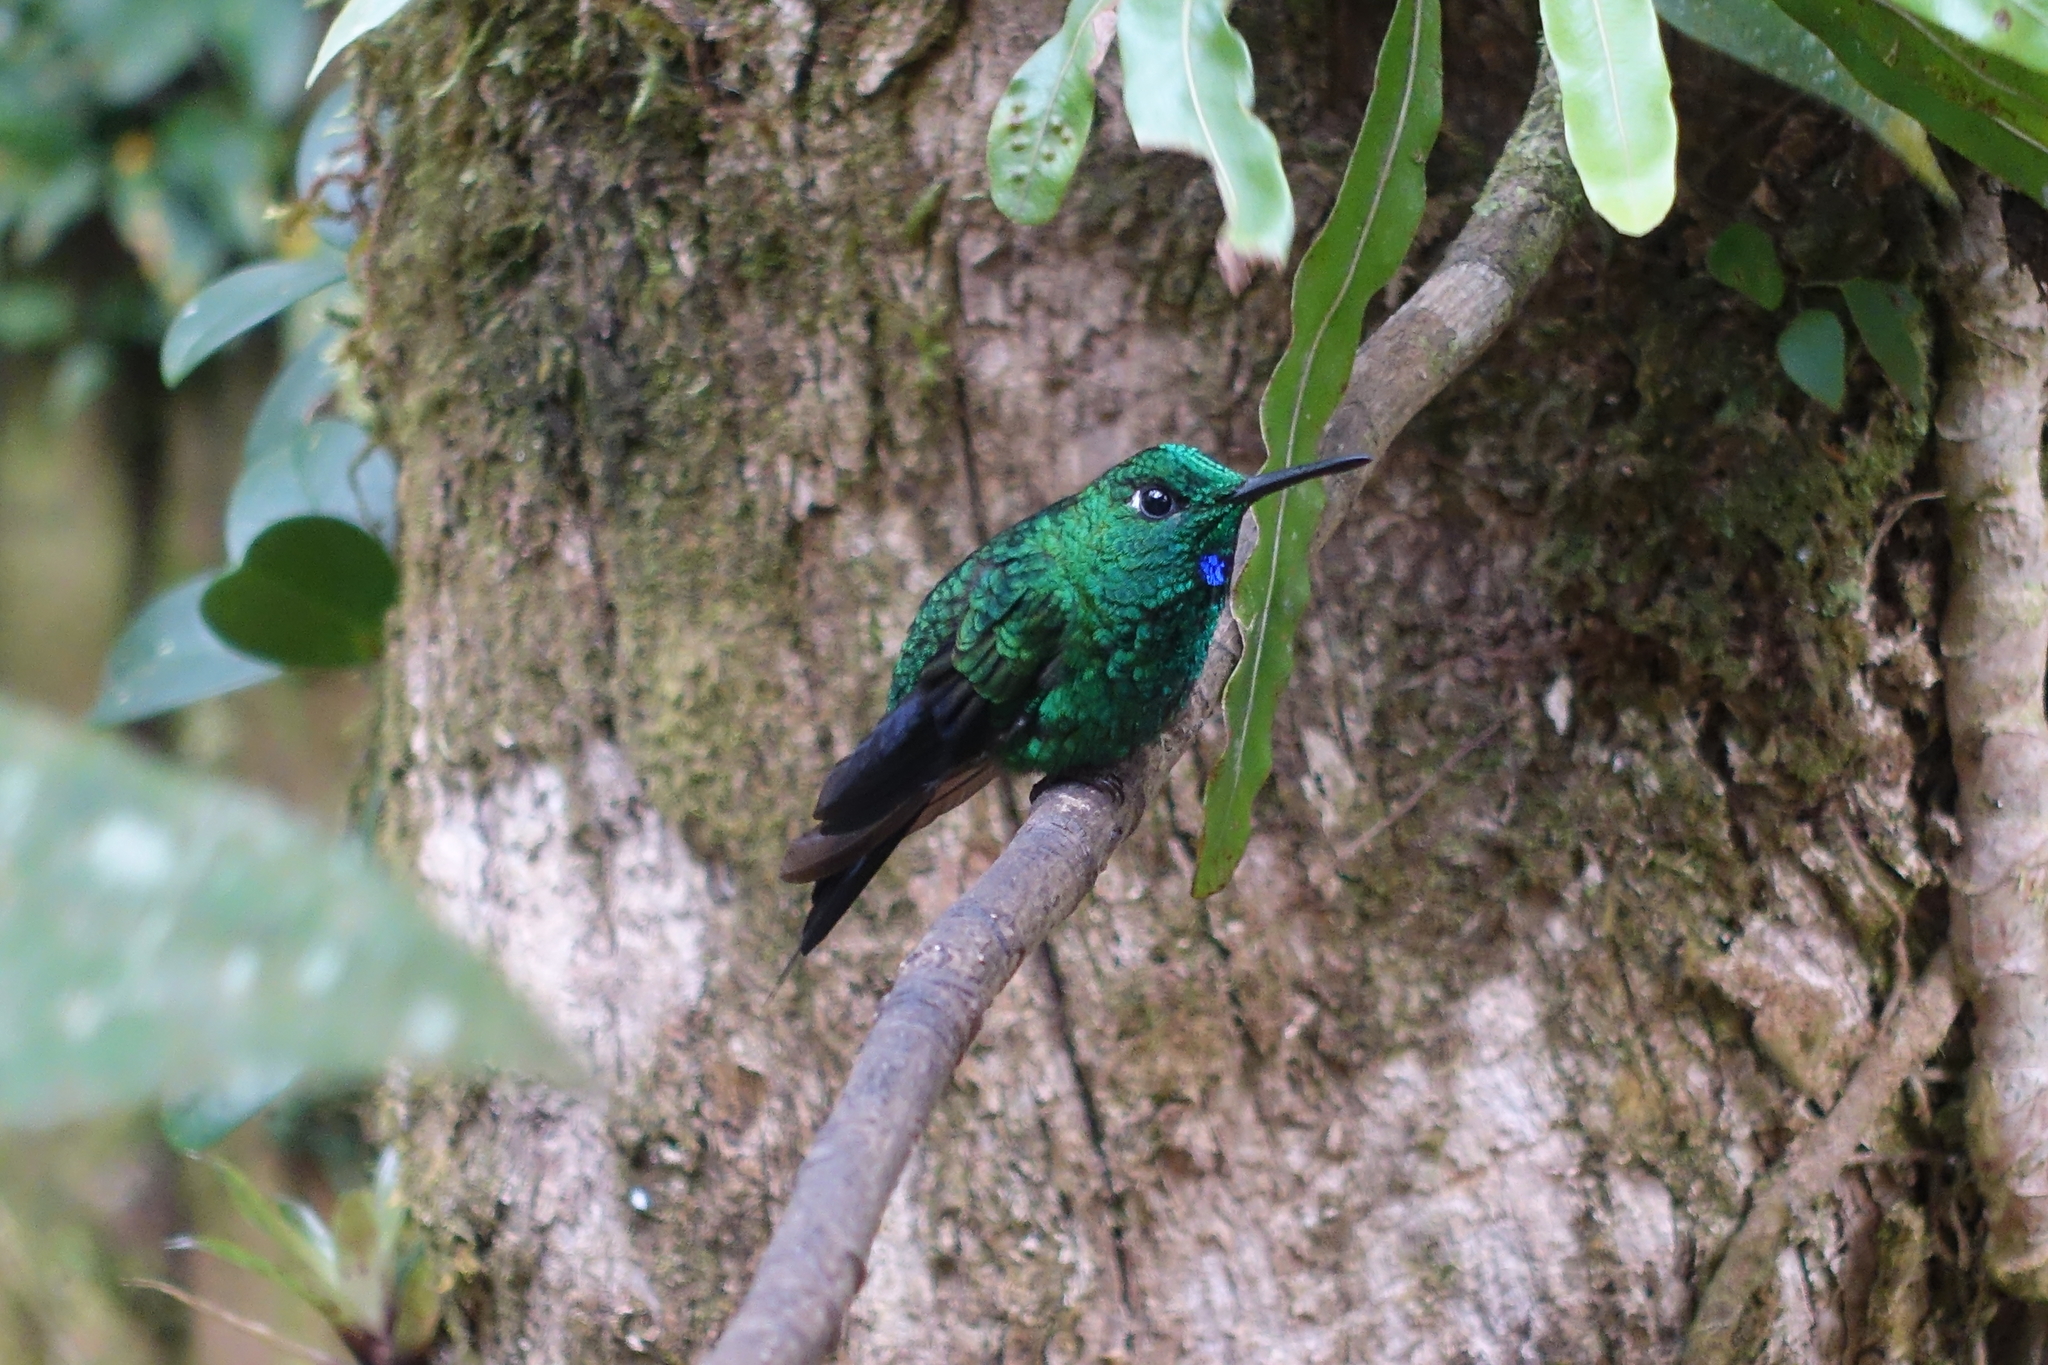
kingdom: Animalia
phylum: Chordata
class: Aves
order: Apodiformes
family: Trochilidae
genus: Heliodoxa
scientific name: Heliodoxa jacula
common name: Green-crowned brilliant
